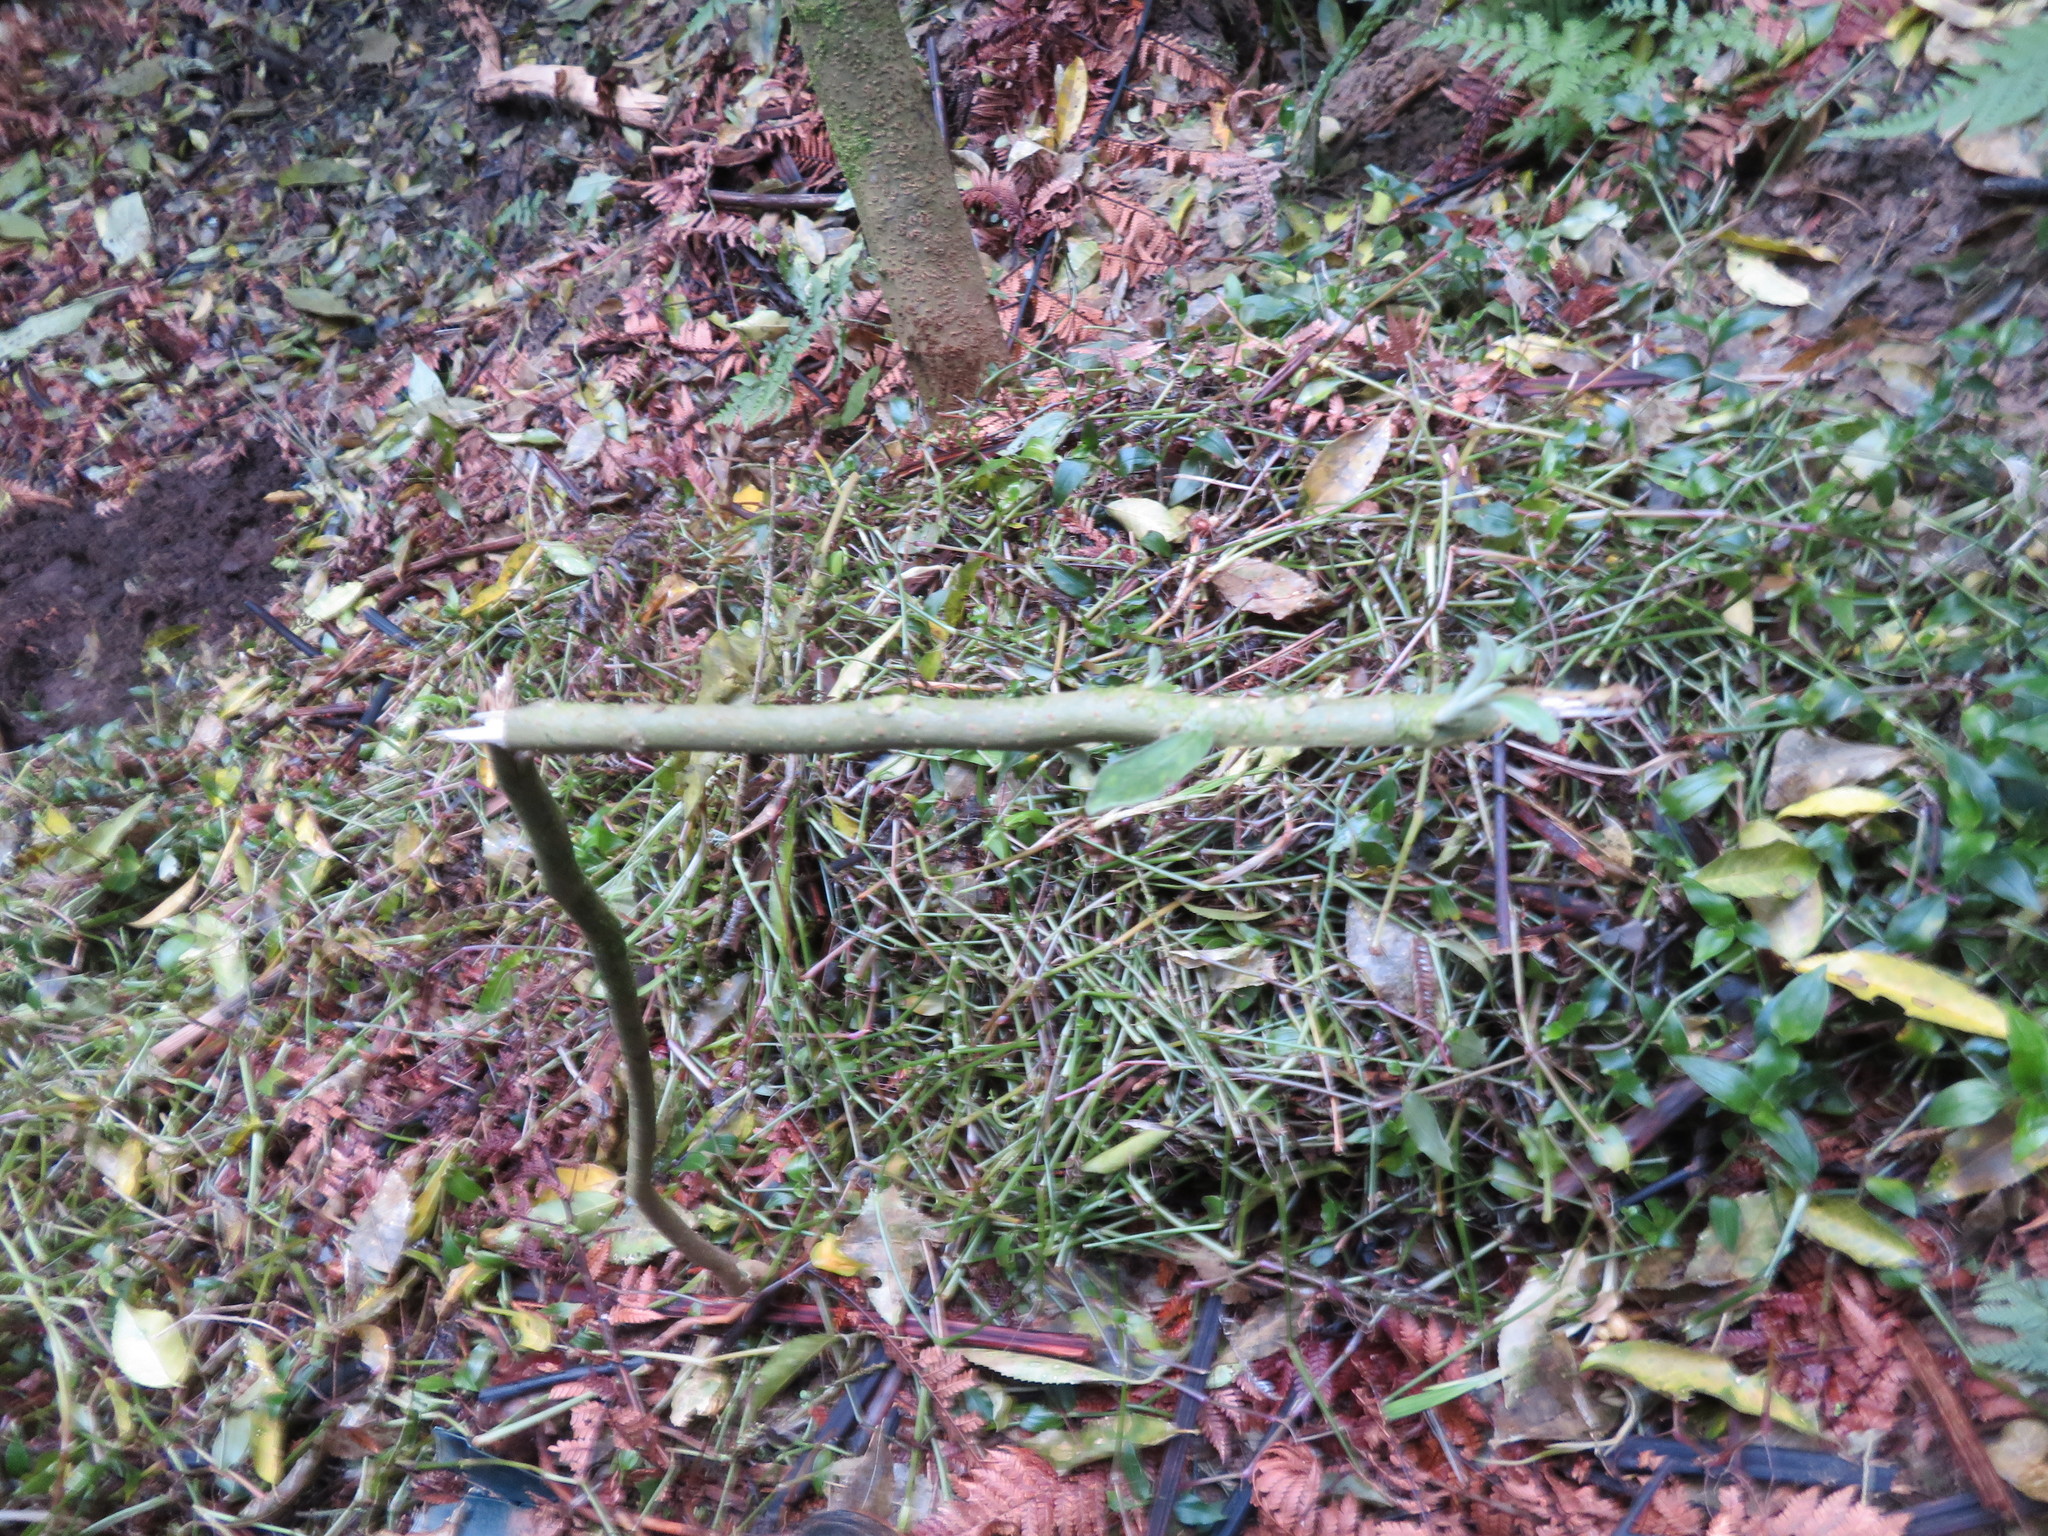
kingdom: Plantae
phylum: Tracheophyta
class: Magnoliopsida
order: Solanales
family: Solanaceae
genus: Solanum
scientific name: Solanum mauritianum
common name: Earleaf nightshade
